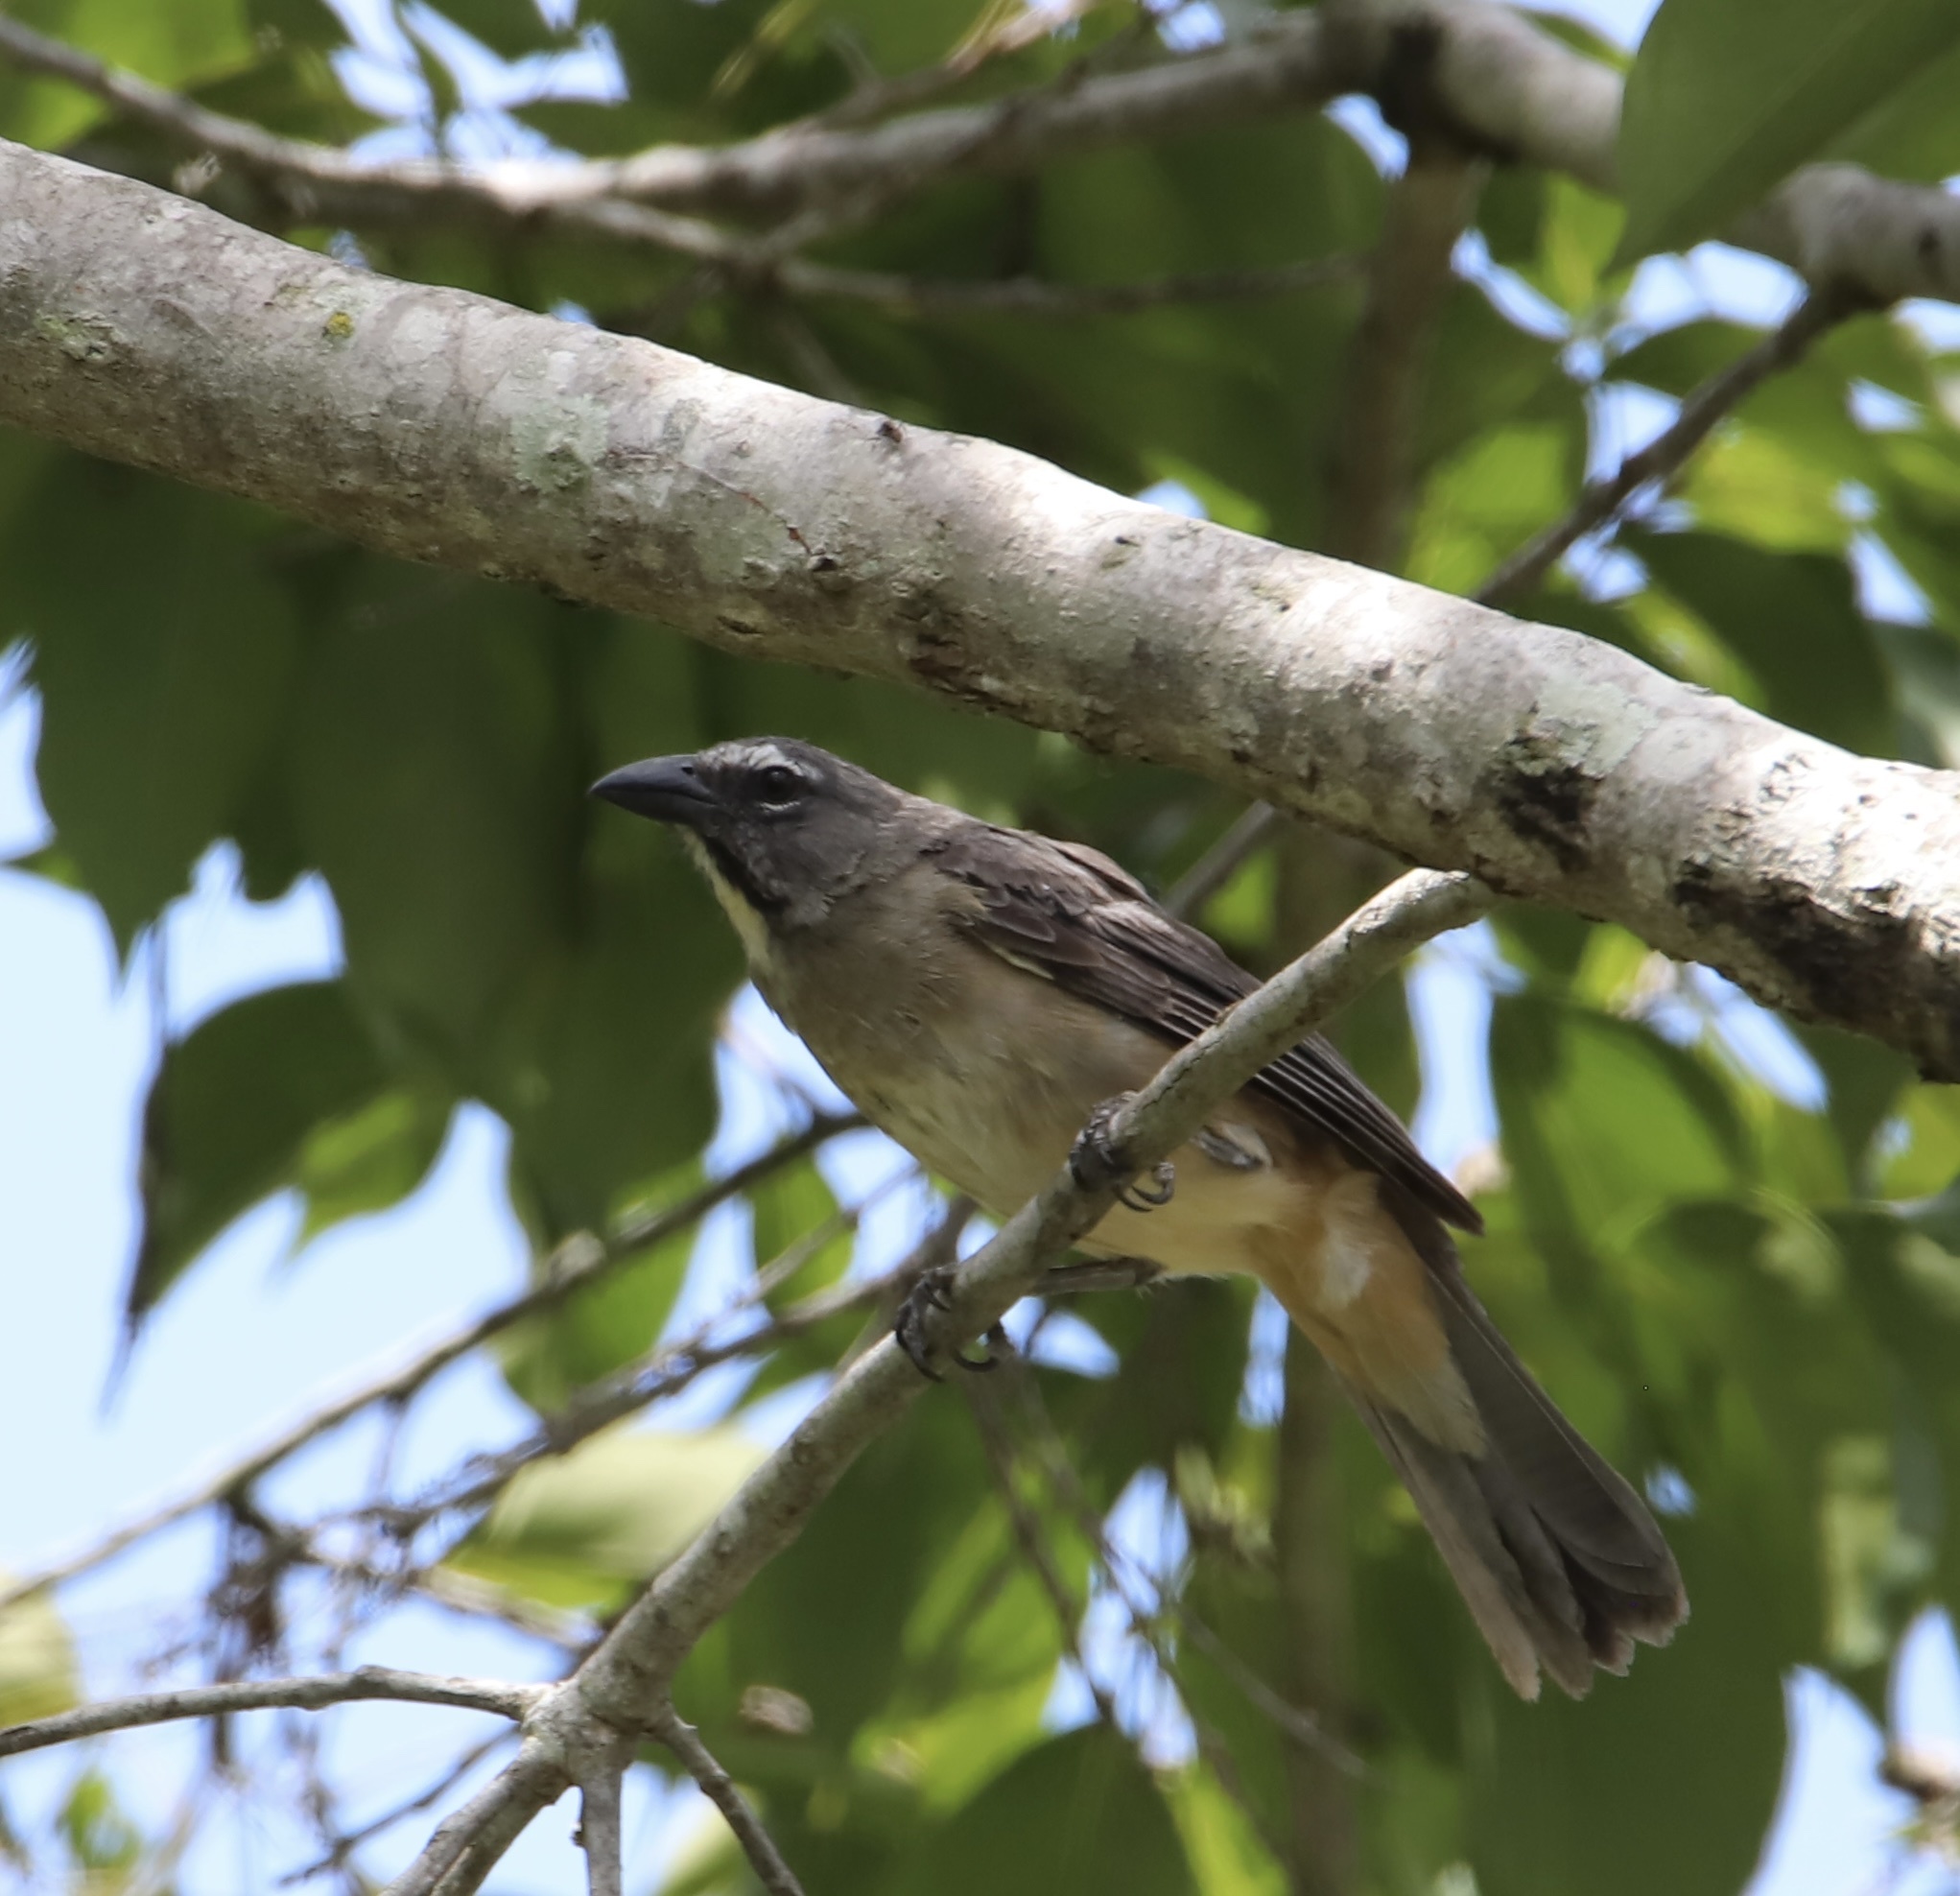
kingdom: Animalia
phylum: Chordata
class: Aves
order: Passeriformes
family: Thraupidae
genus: Saltator
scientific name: Saltator olivascens
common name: Caribbean grey saltator
